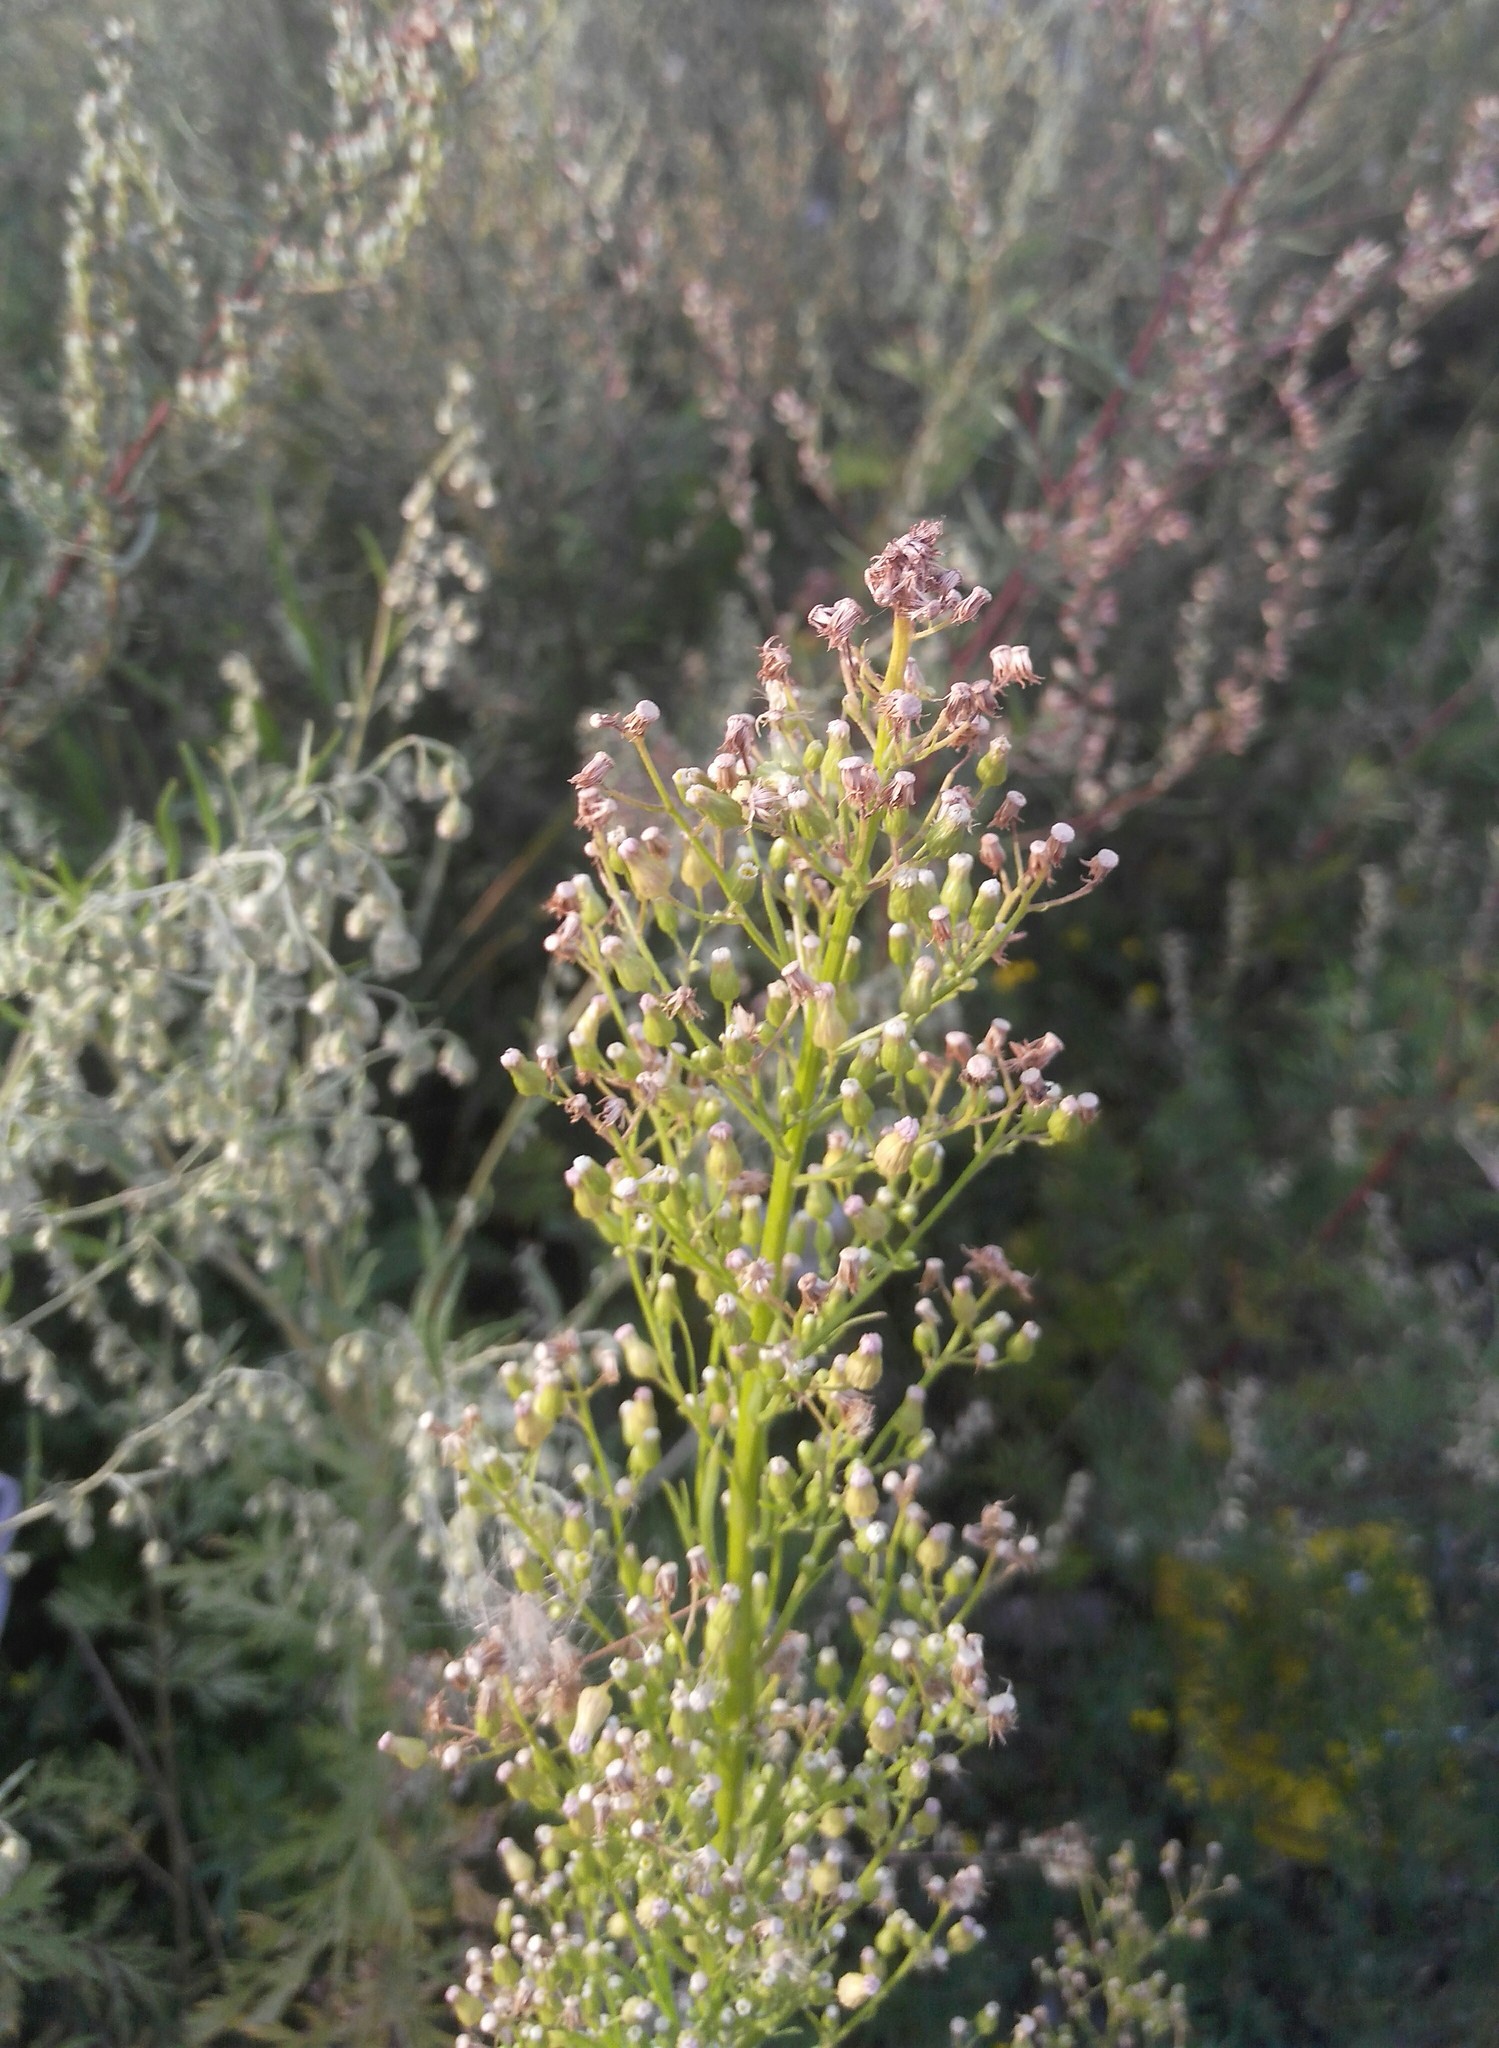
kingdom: Plantae
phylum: Tracheophyta
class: Magnoliopsida
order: Asterales
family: Asteraceae
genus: Erigeron
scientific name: Erigeron canadensis
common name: Canadian fleabane
